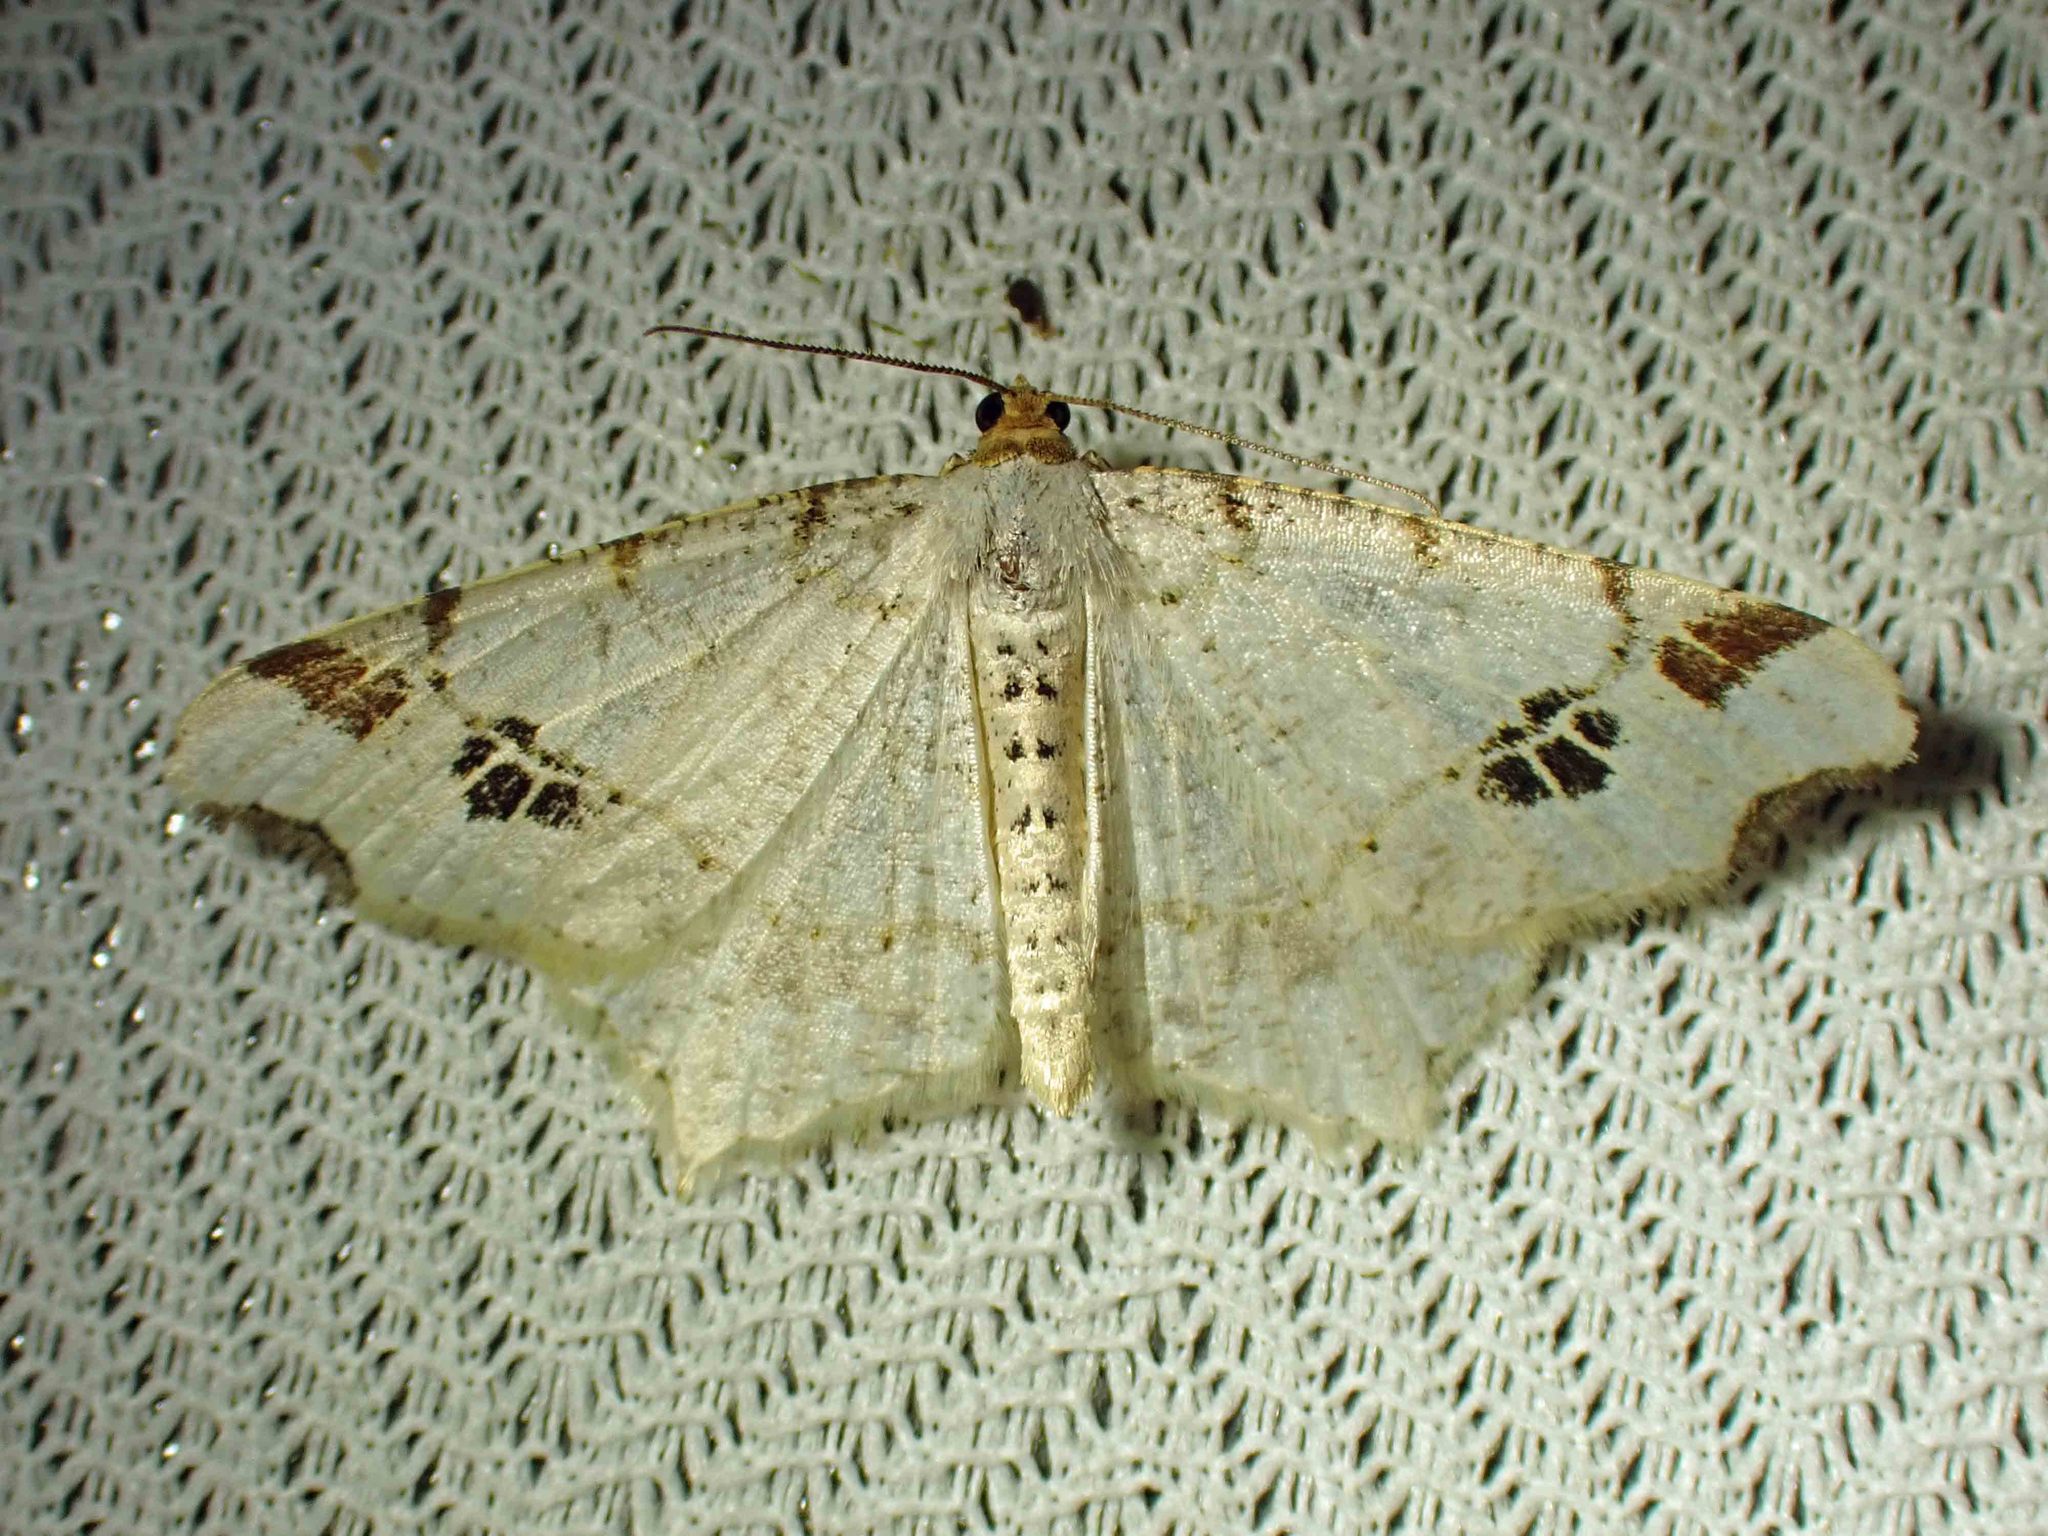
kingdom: Animalia
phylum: Arthropoda
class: Insecta
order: Lepidoptera
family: Geometridae
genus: Macaria
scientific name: Macaria ulsterata
